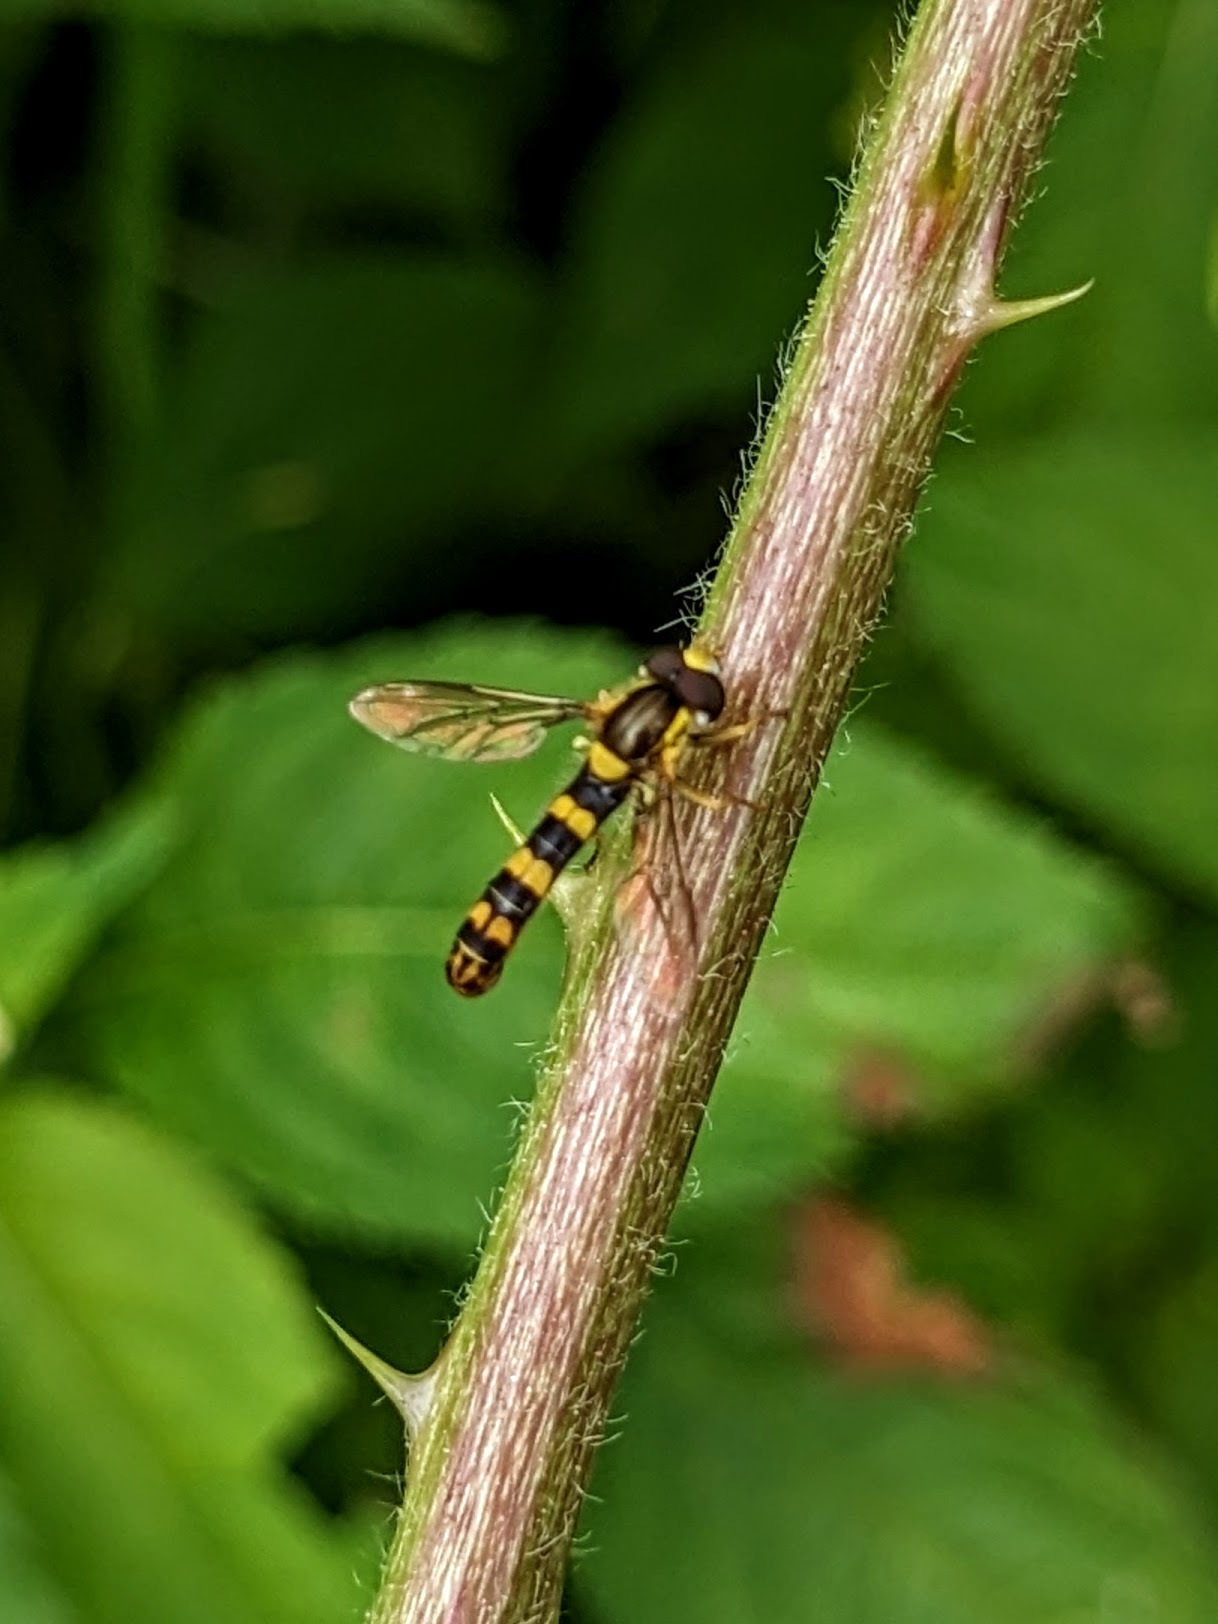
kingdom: Animalia
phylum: Arthropoda
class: Insecta
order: Diptera
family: Syrphidae
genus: Sphaerophoria
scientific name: Sphaerophoria scripta
